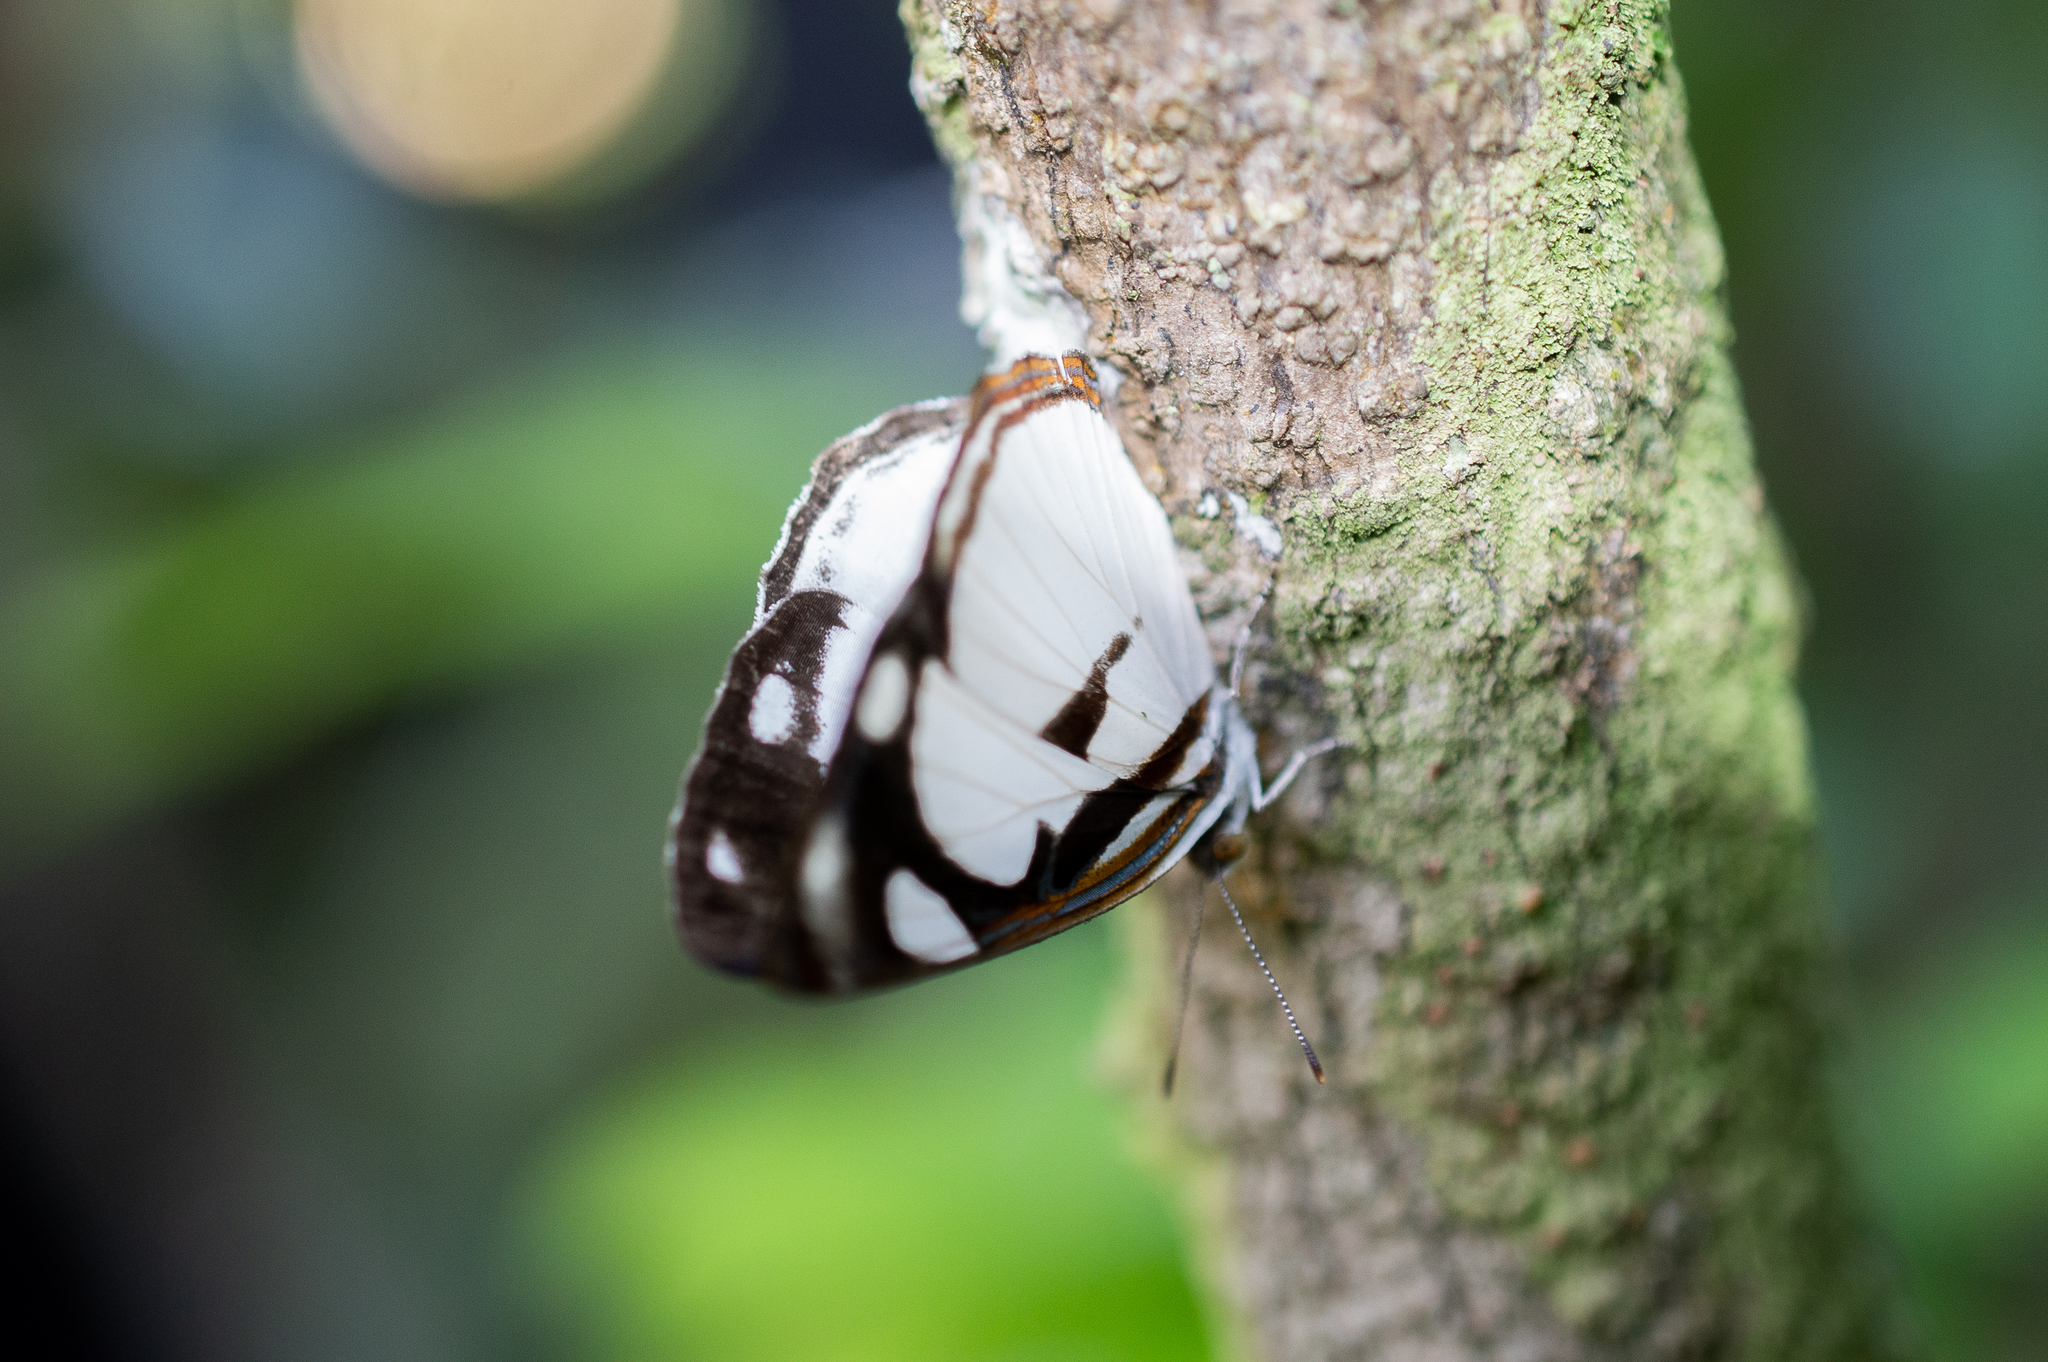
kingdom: Animalia
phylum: Arthropoda
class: Insecta
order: Lepidoptera
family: Nymphalidae
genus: Dynamine
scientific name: Dynamine athemon
